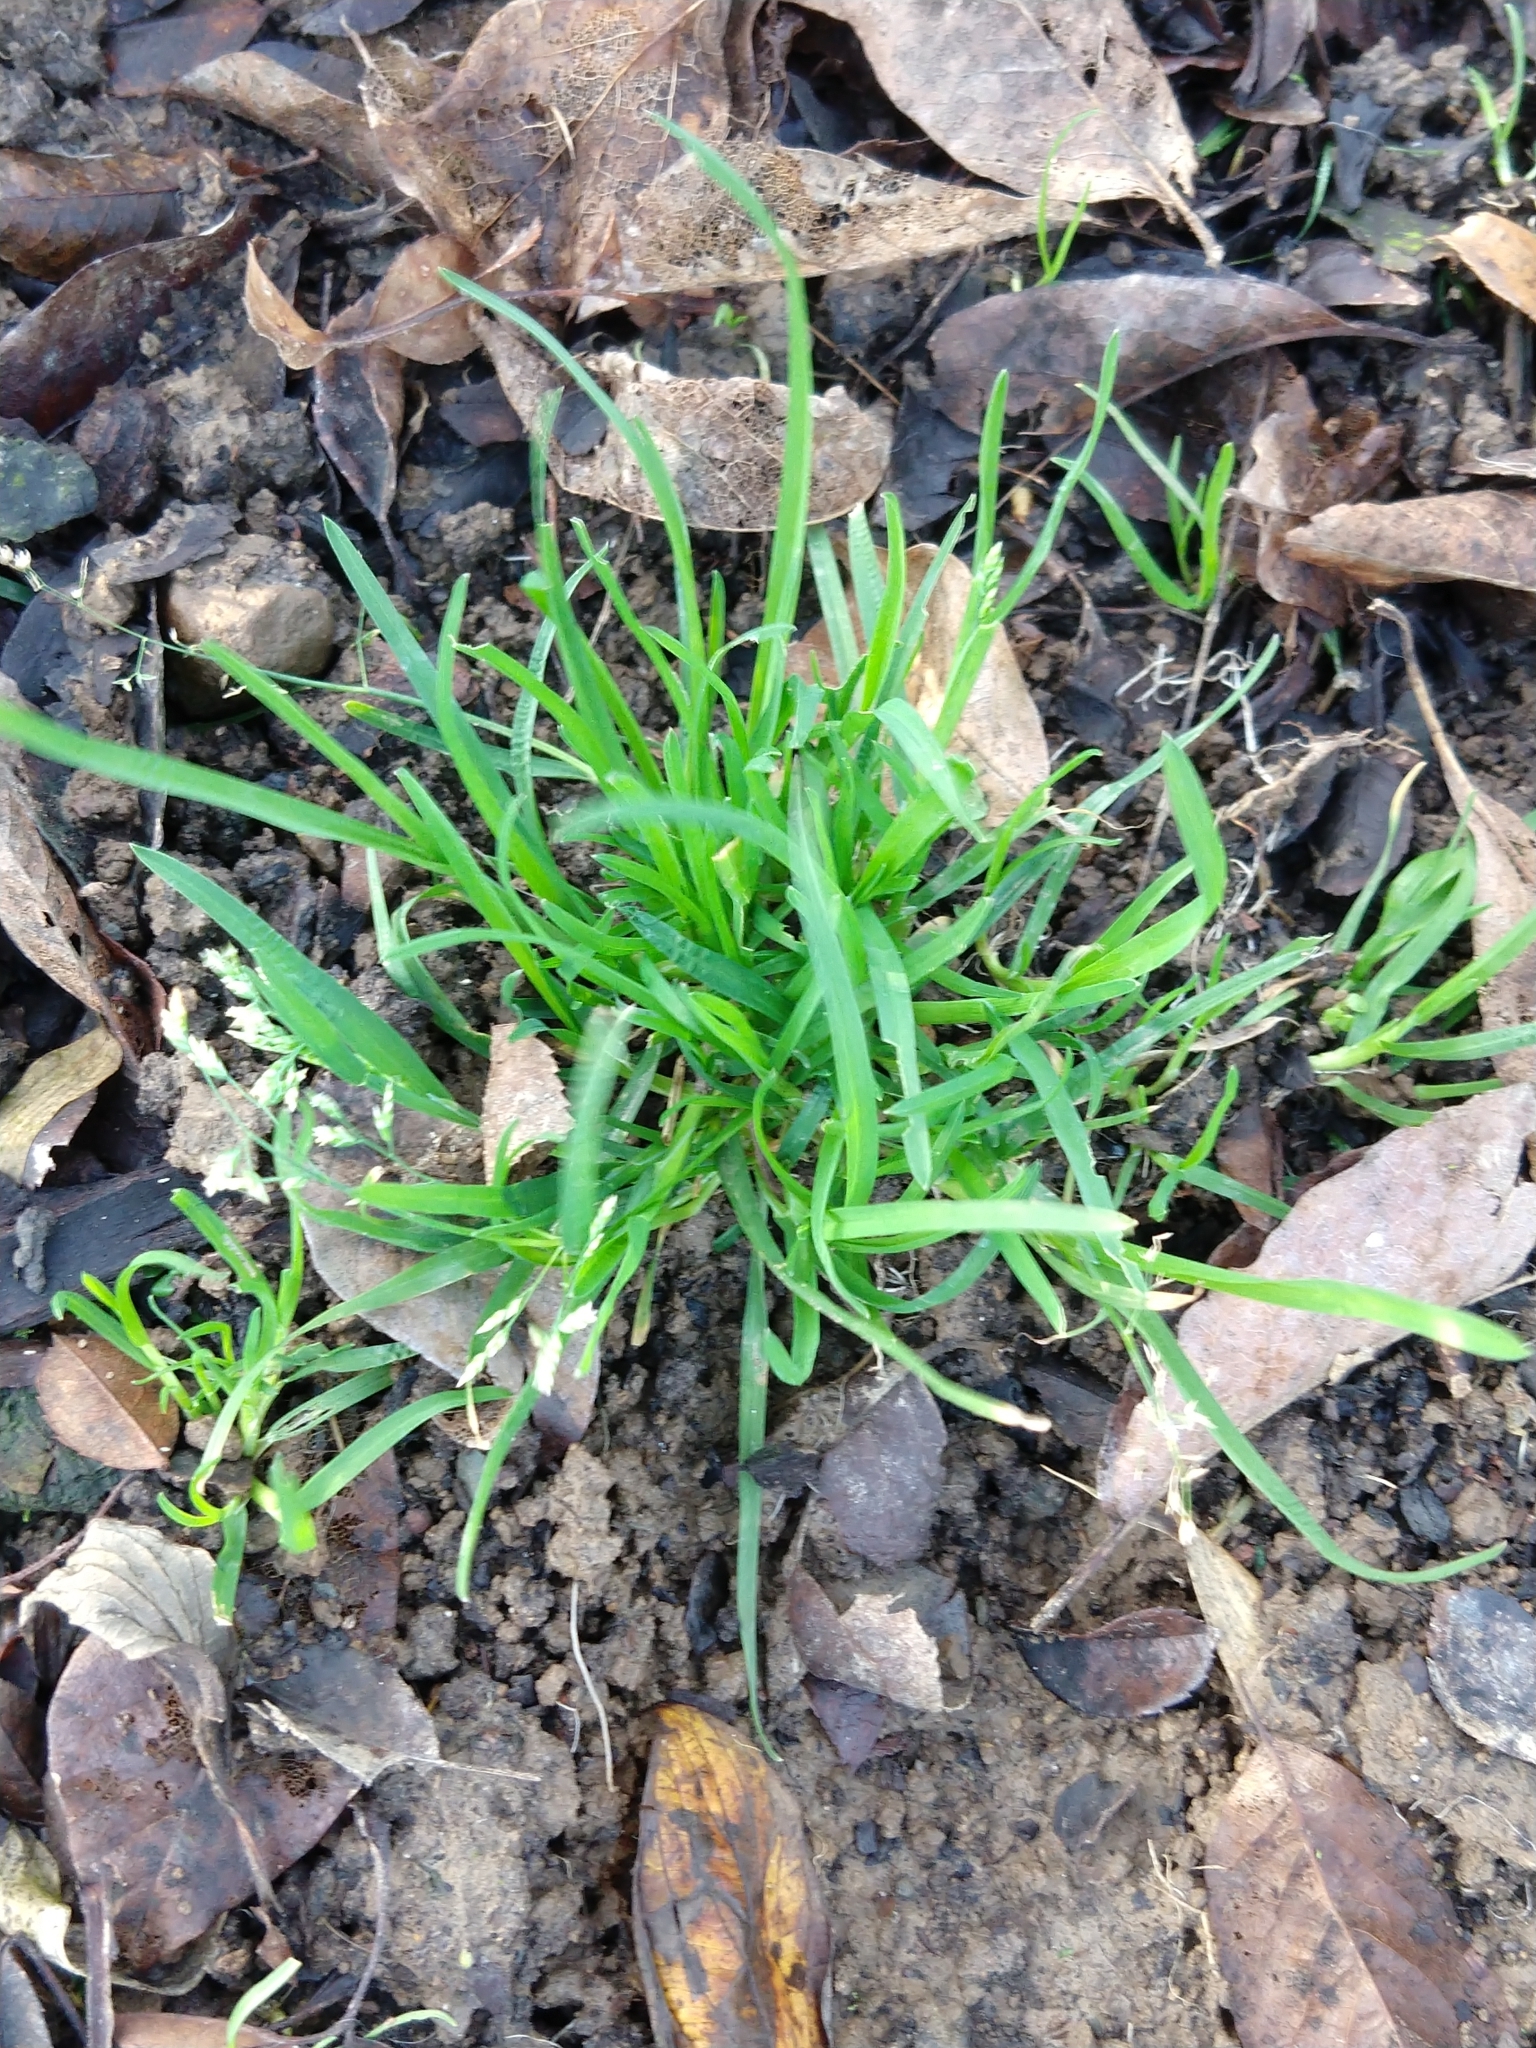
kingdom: Plantae
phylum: Tracheophyta
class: Liliopsida
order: Poales
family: Poaceae
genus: Poa
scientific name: Poa annua
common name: Annual bluegrass
